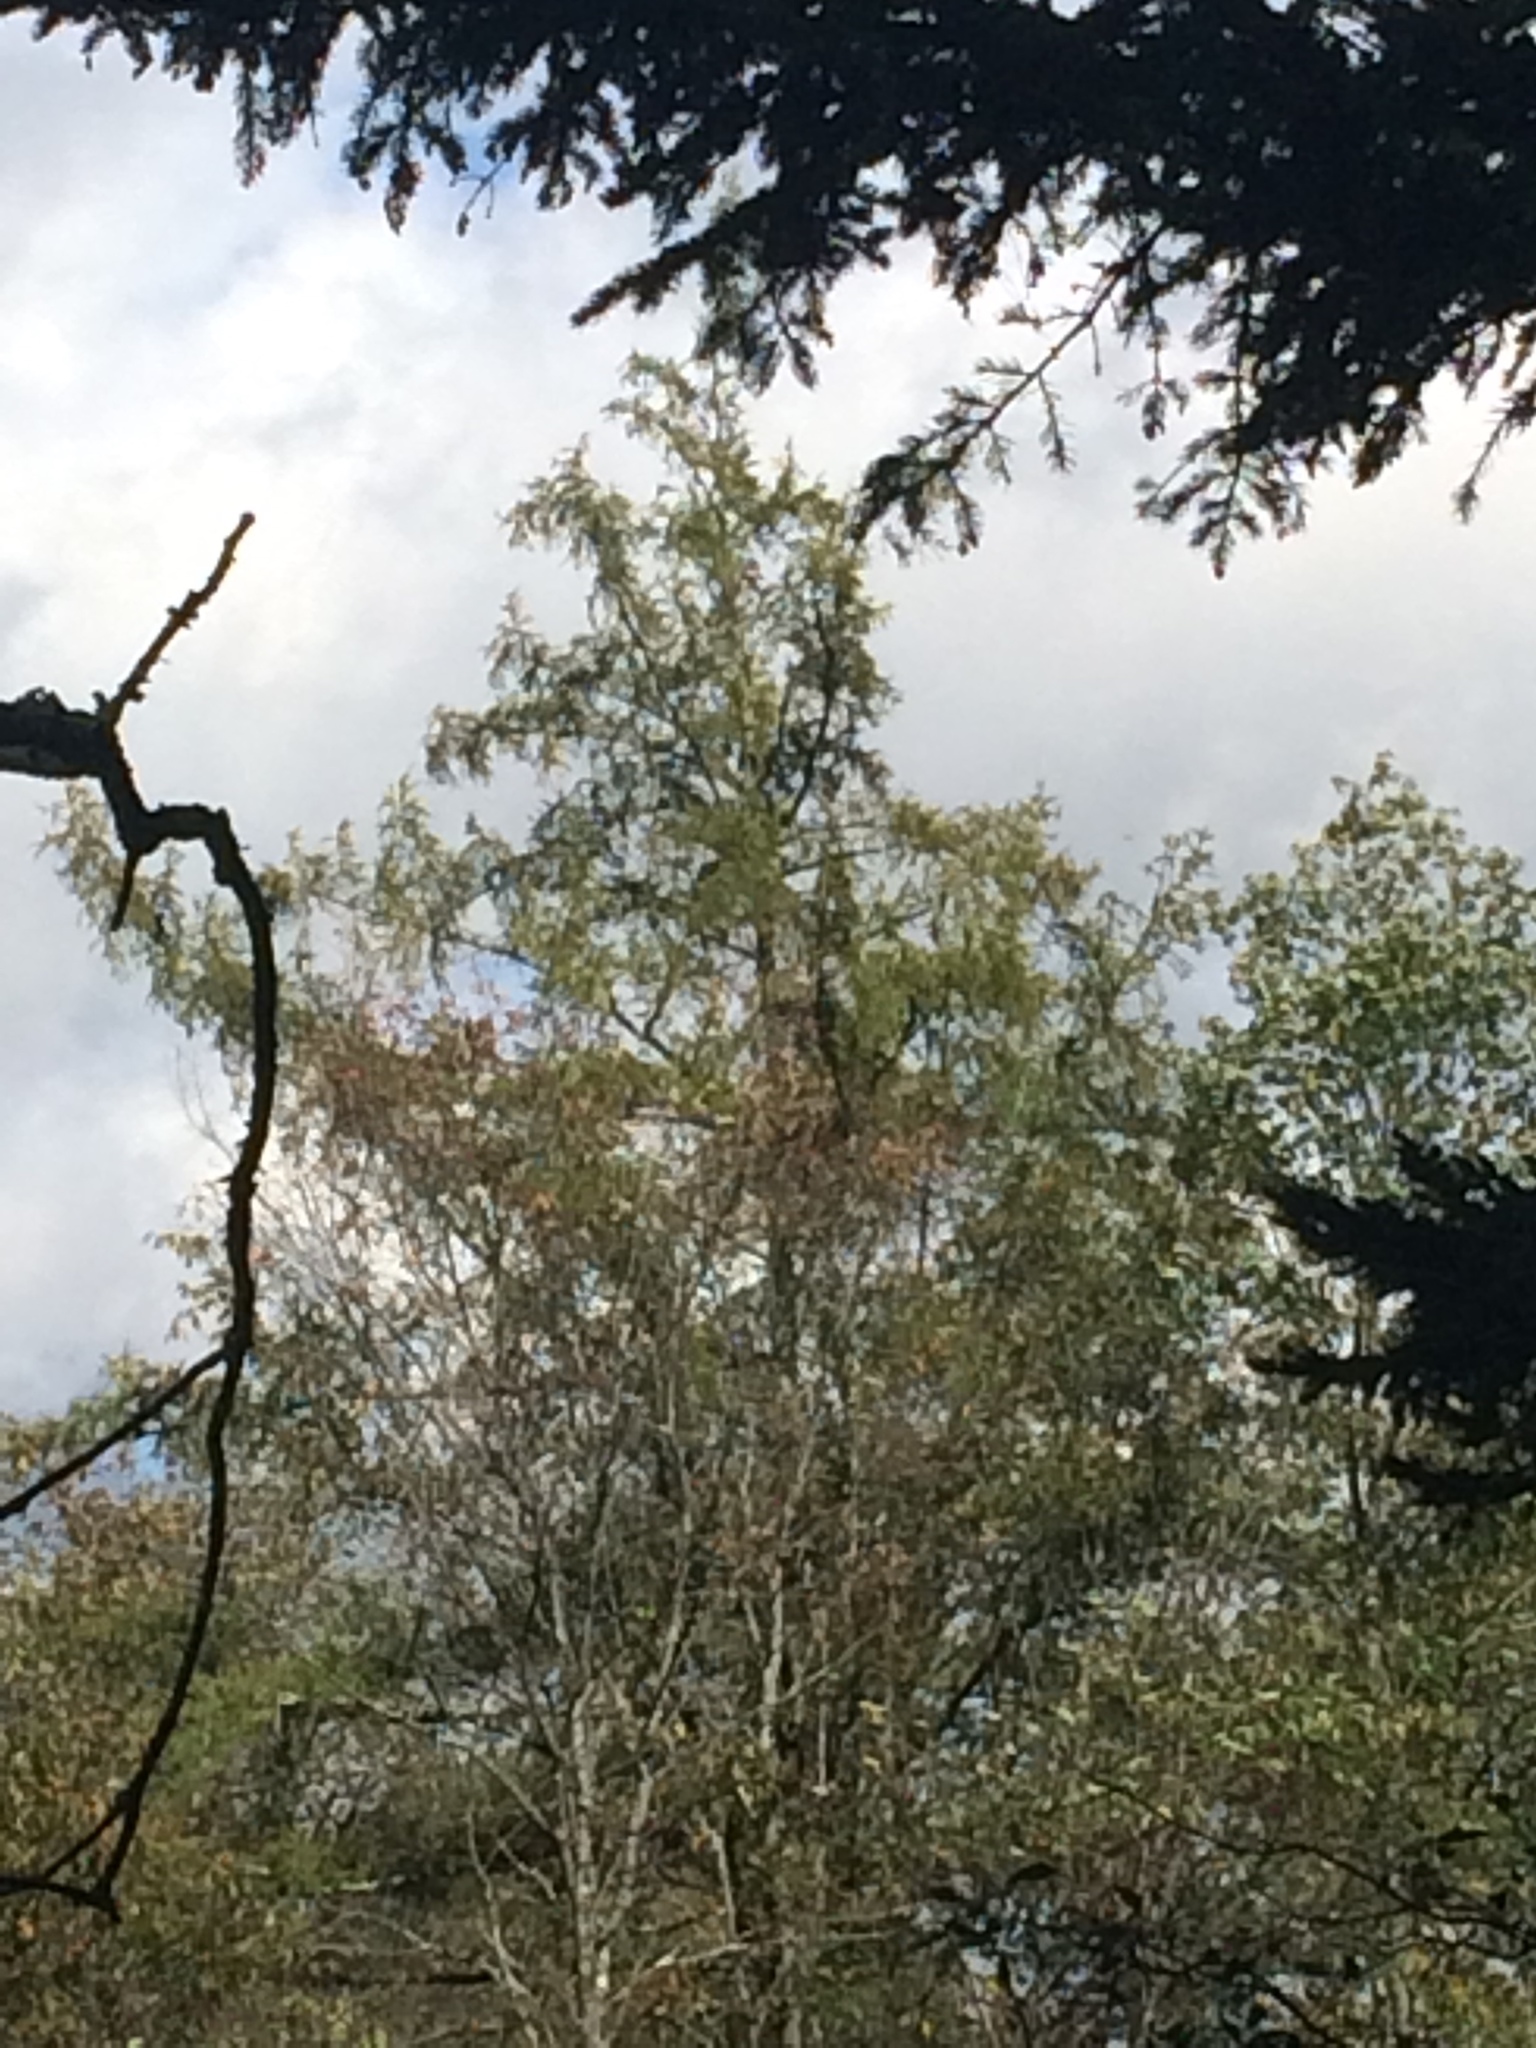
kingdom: Plantae
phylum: Tracheophyta
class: Pinopsida
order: Pinales
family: Pinaceae
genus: Larix
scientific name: Larix laricina
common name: American larch
